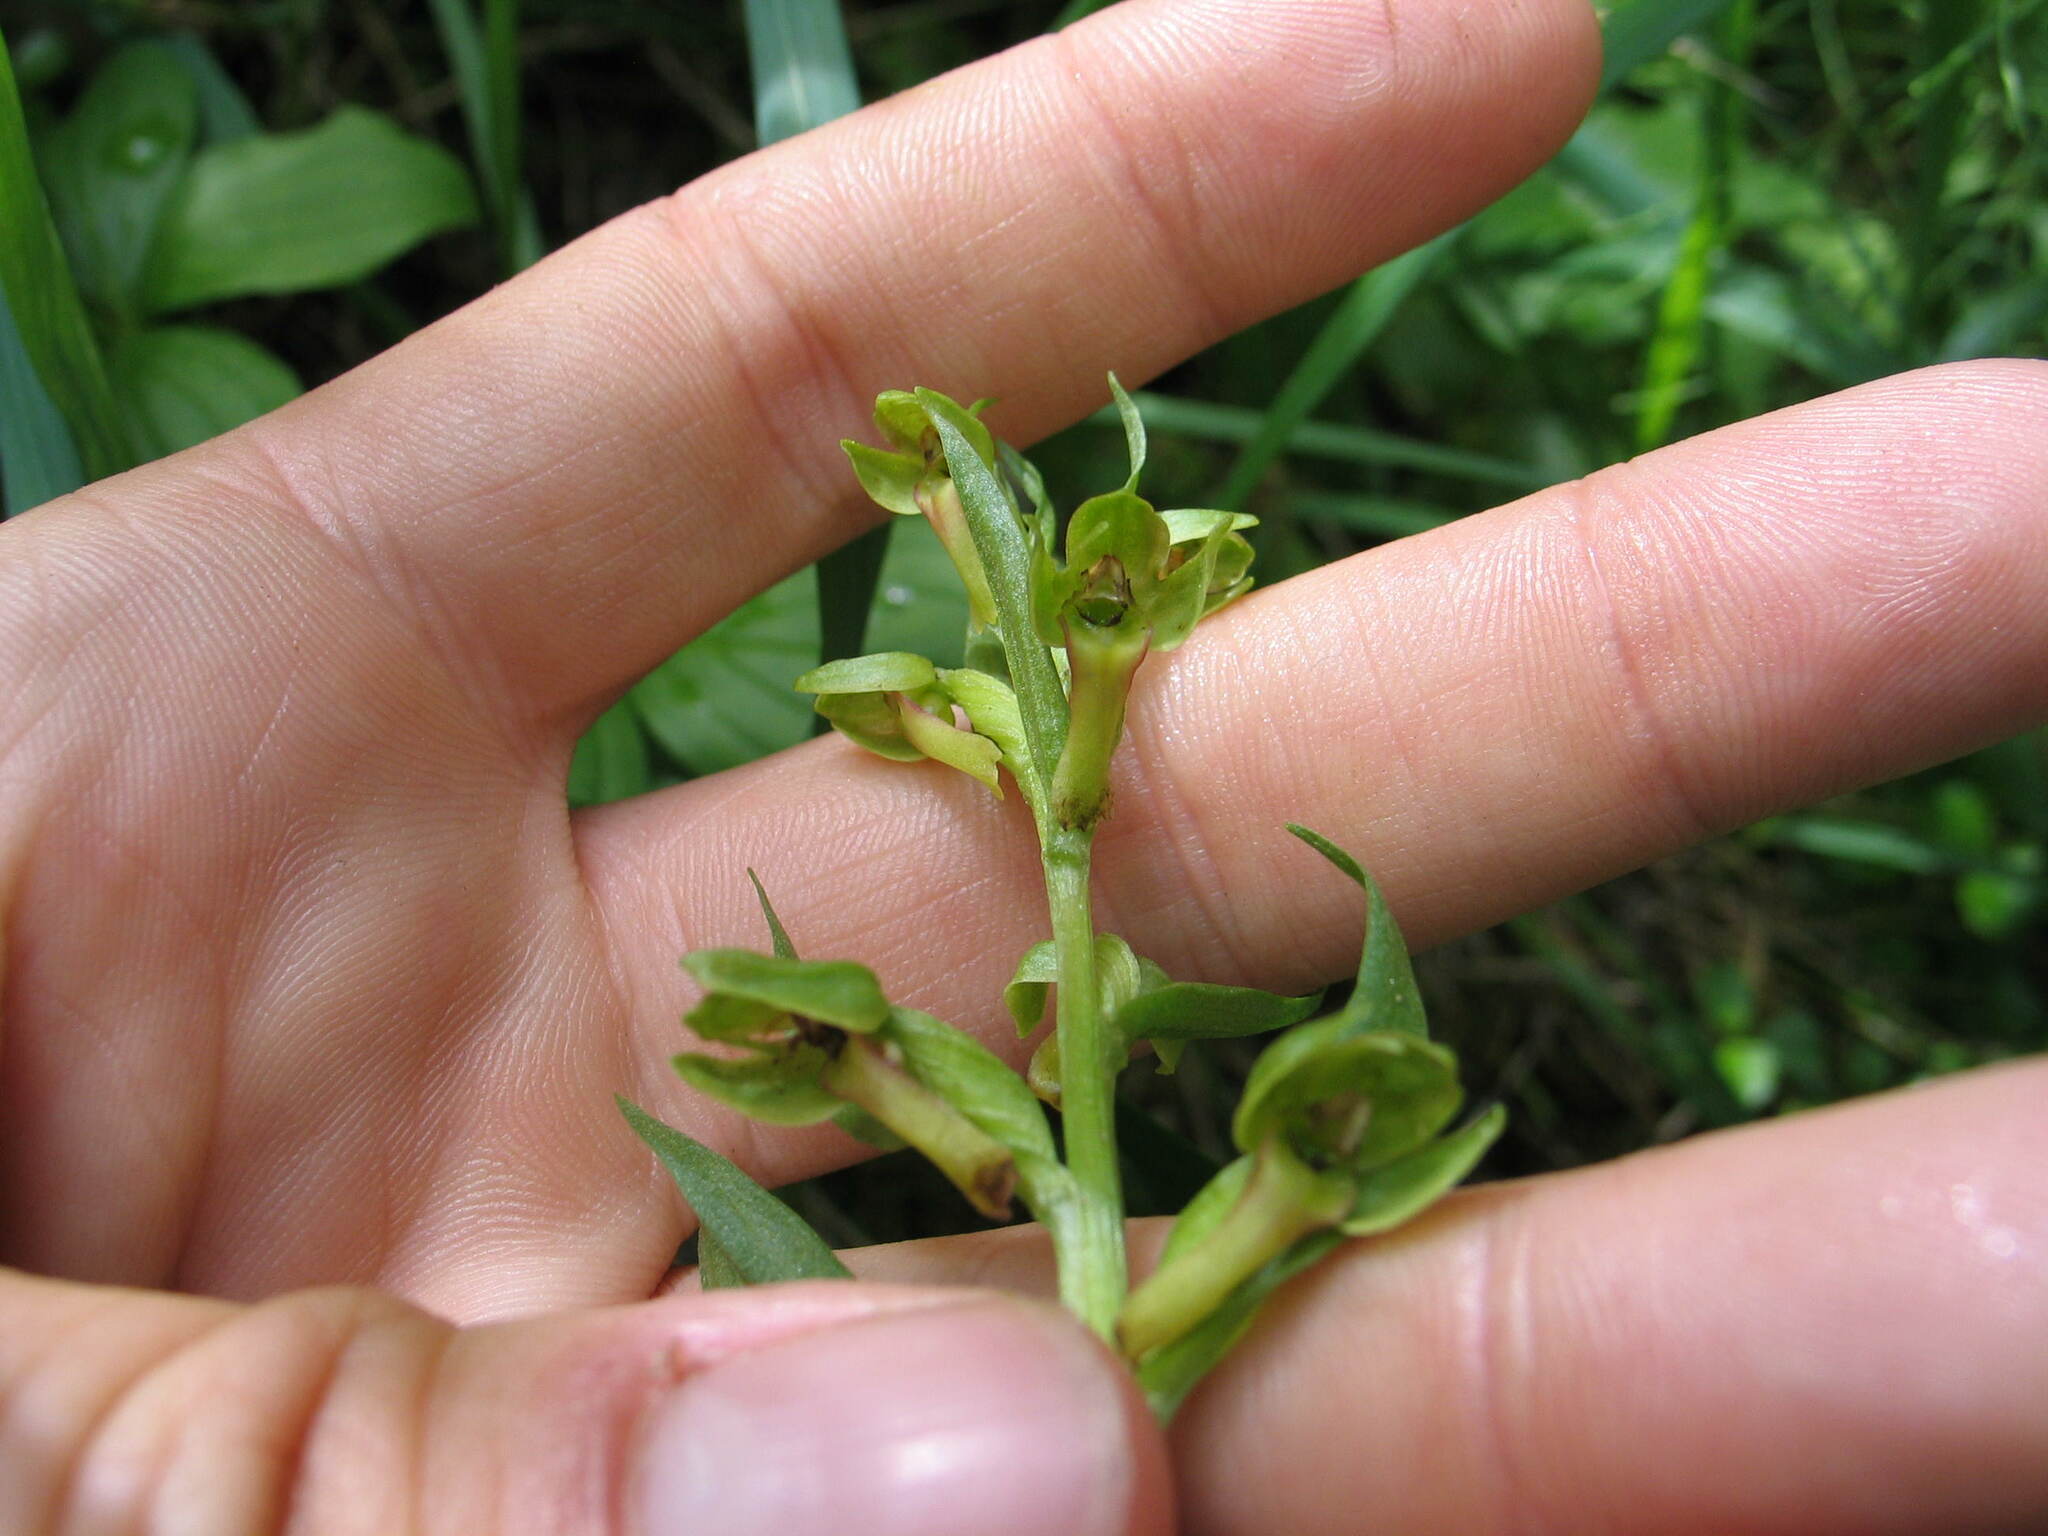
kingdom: Plantae
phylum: Tracheophyta
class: Liliopsida
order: Asparagales
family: Orchidaceae
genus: Dactylorhiza
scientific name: Dactylorhiza viridis
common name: Longbract frog orchid
